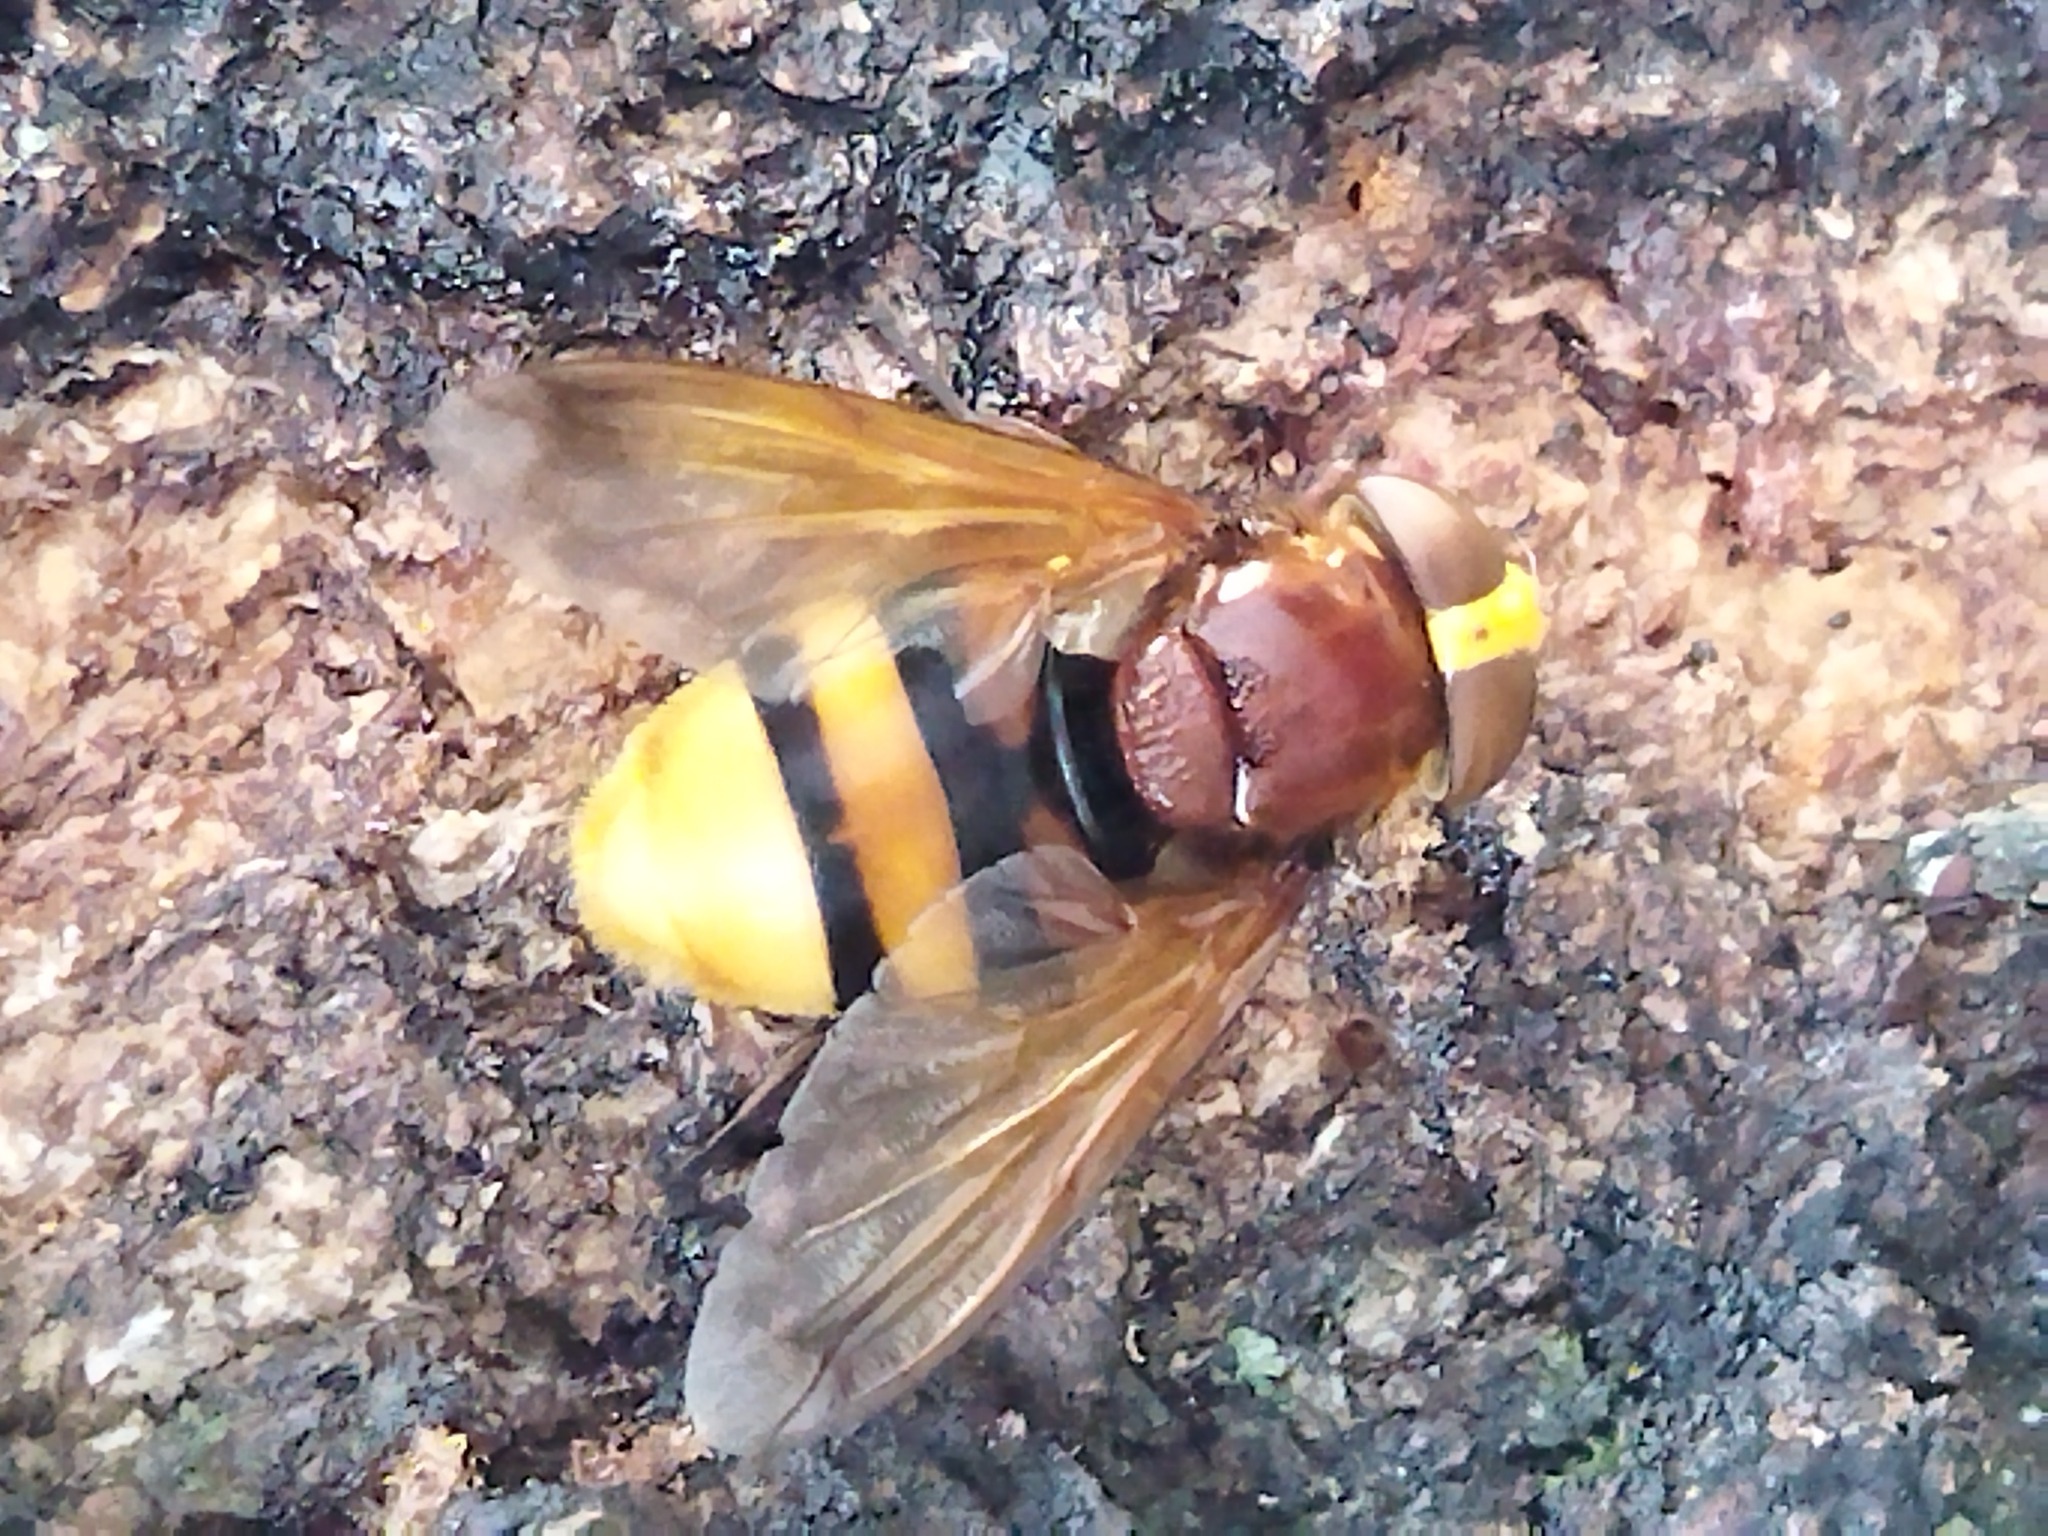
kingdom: Animalia
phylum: Arthropoda
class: Insecta
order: Diptera
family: Syrphidae
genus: Volucella
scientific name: Volucella zonaria
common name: Hornet hoverfly
